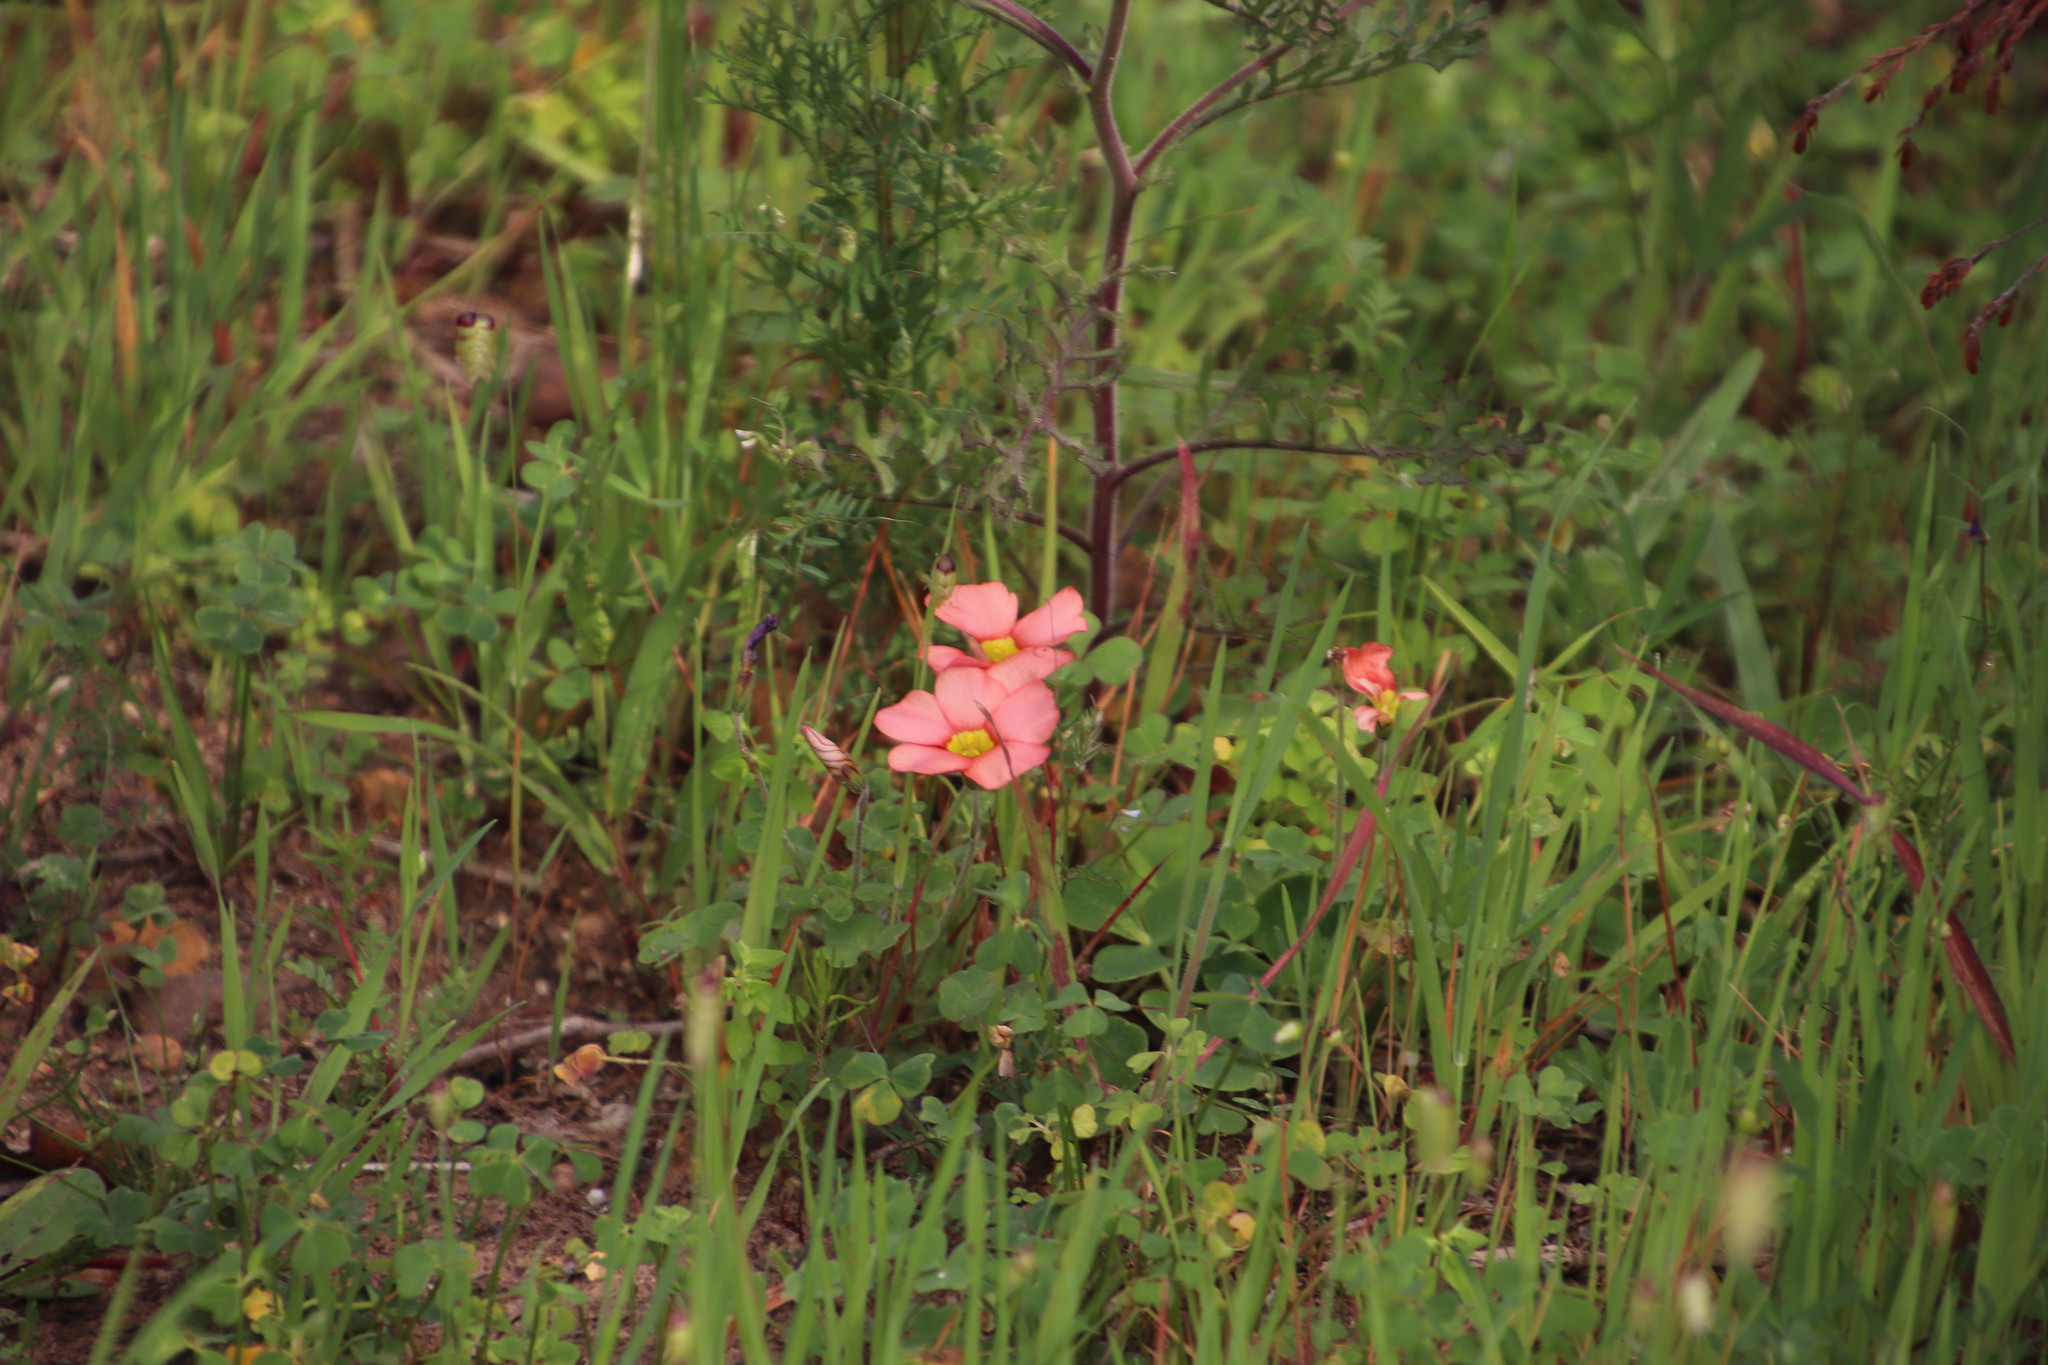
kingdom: Plantae
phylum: Tracheophyta
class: Magnoliopsida
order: Oxalidales
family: Oxalidaceae
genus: Oxalis
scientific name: Oxalis obtusa
